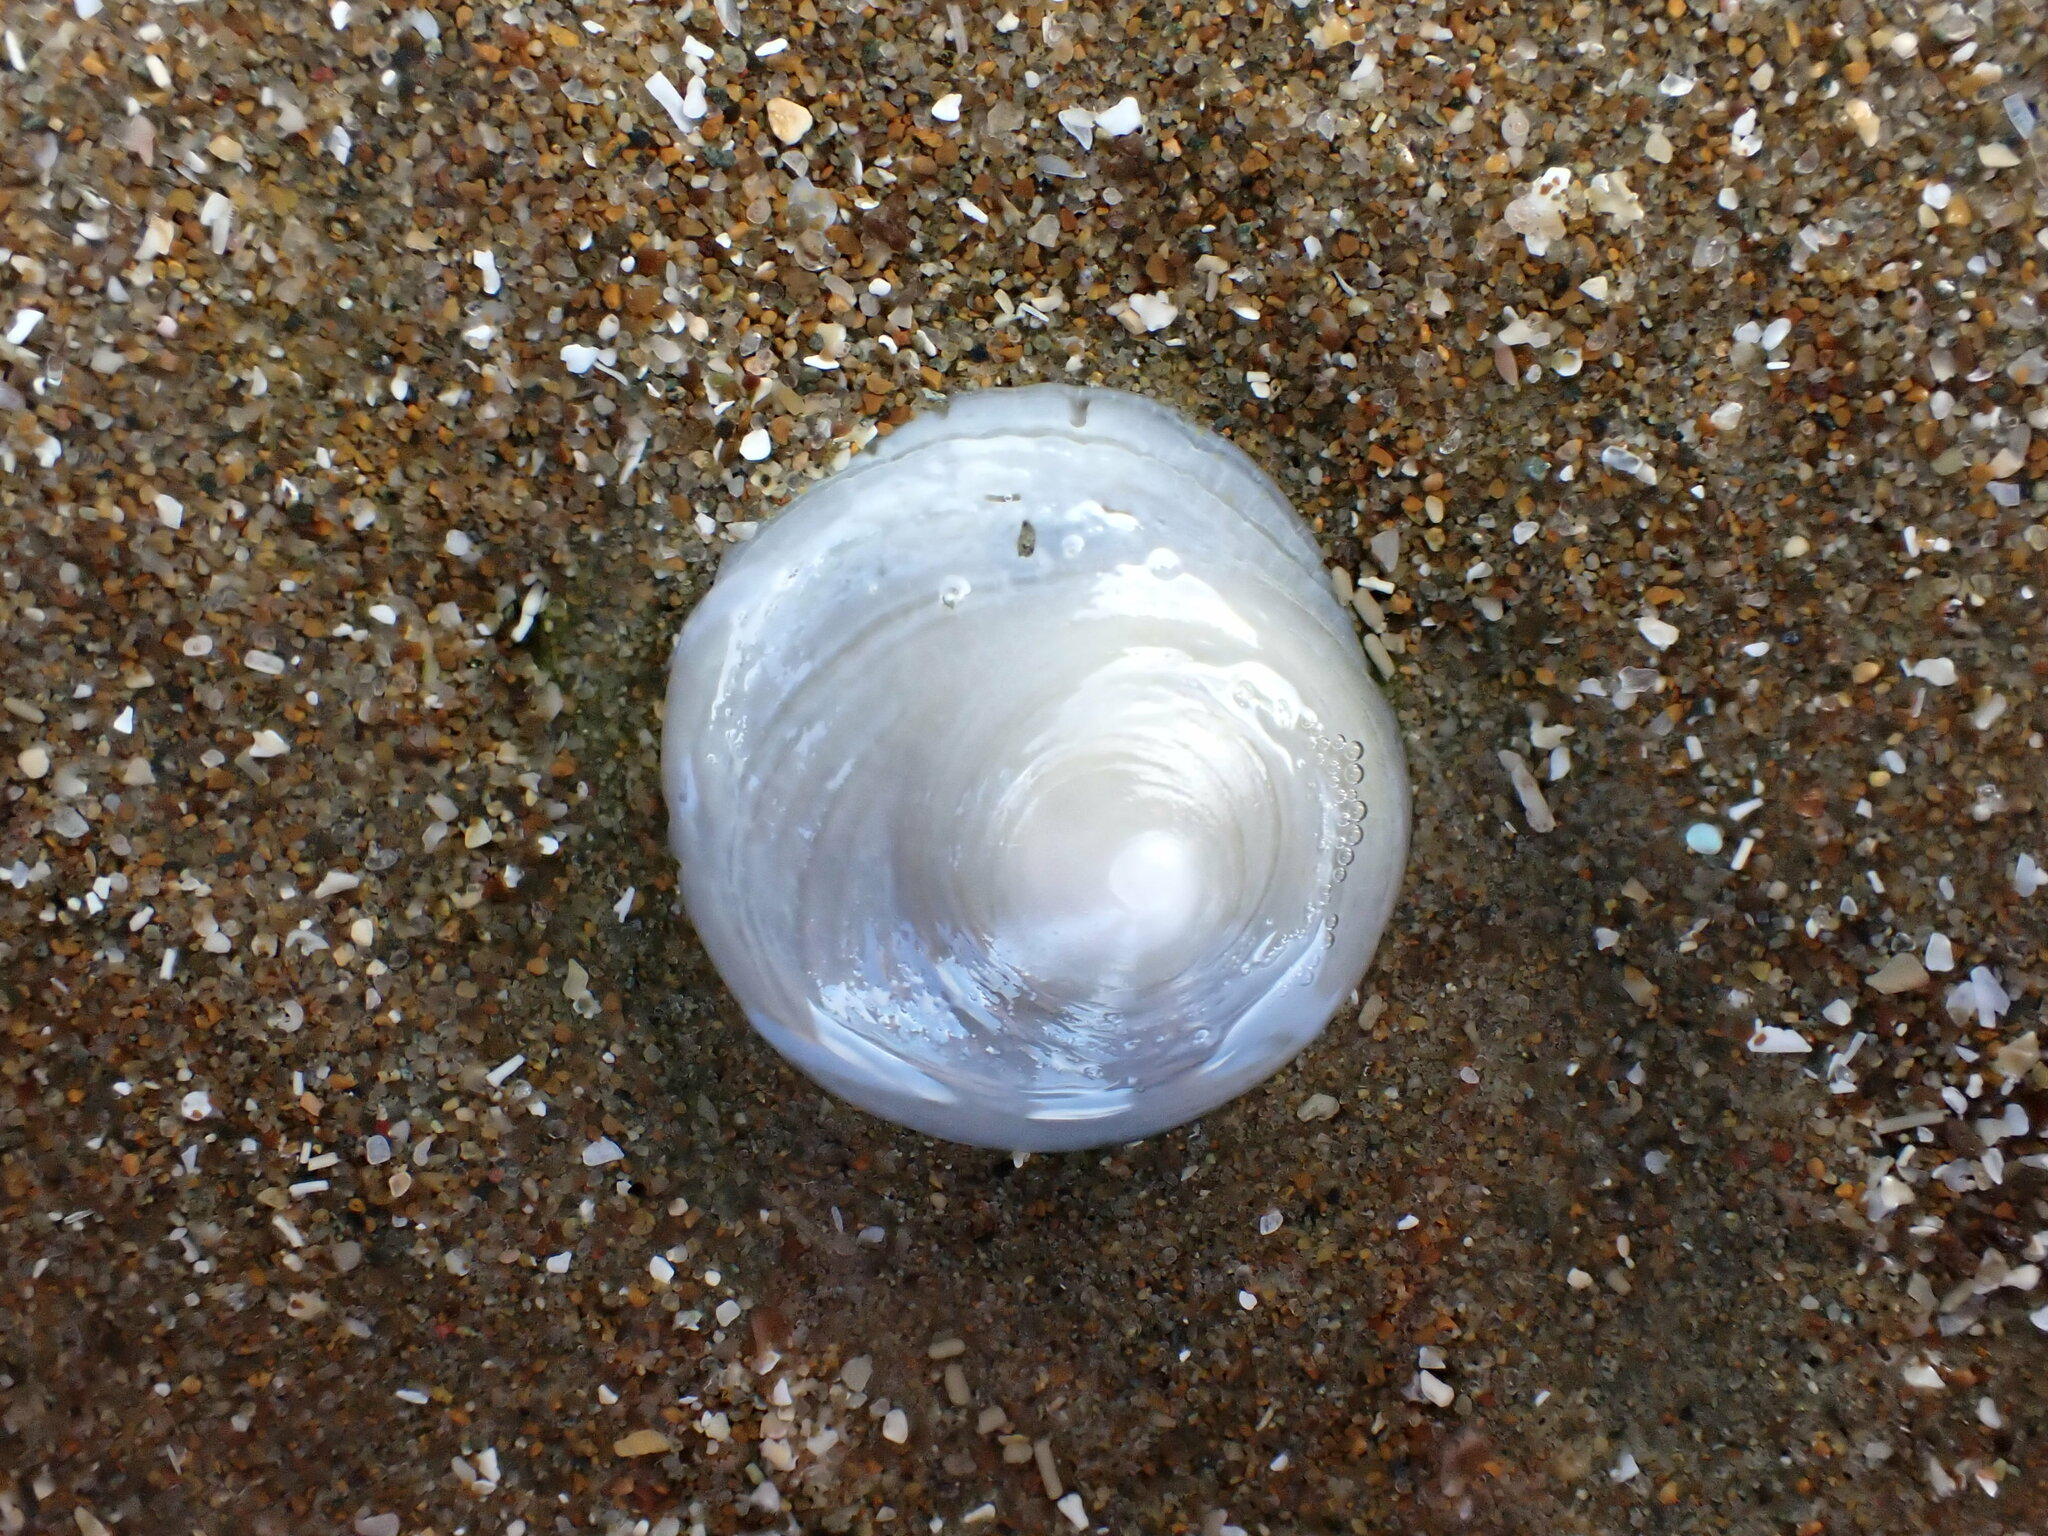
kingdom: Animalia
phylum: Mollusca
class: Gastropoda
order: Littorinimorpha
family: Calyptraeidae
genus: Sigapatella
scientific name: Sigapatella tenuis
